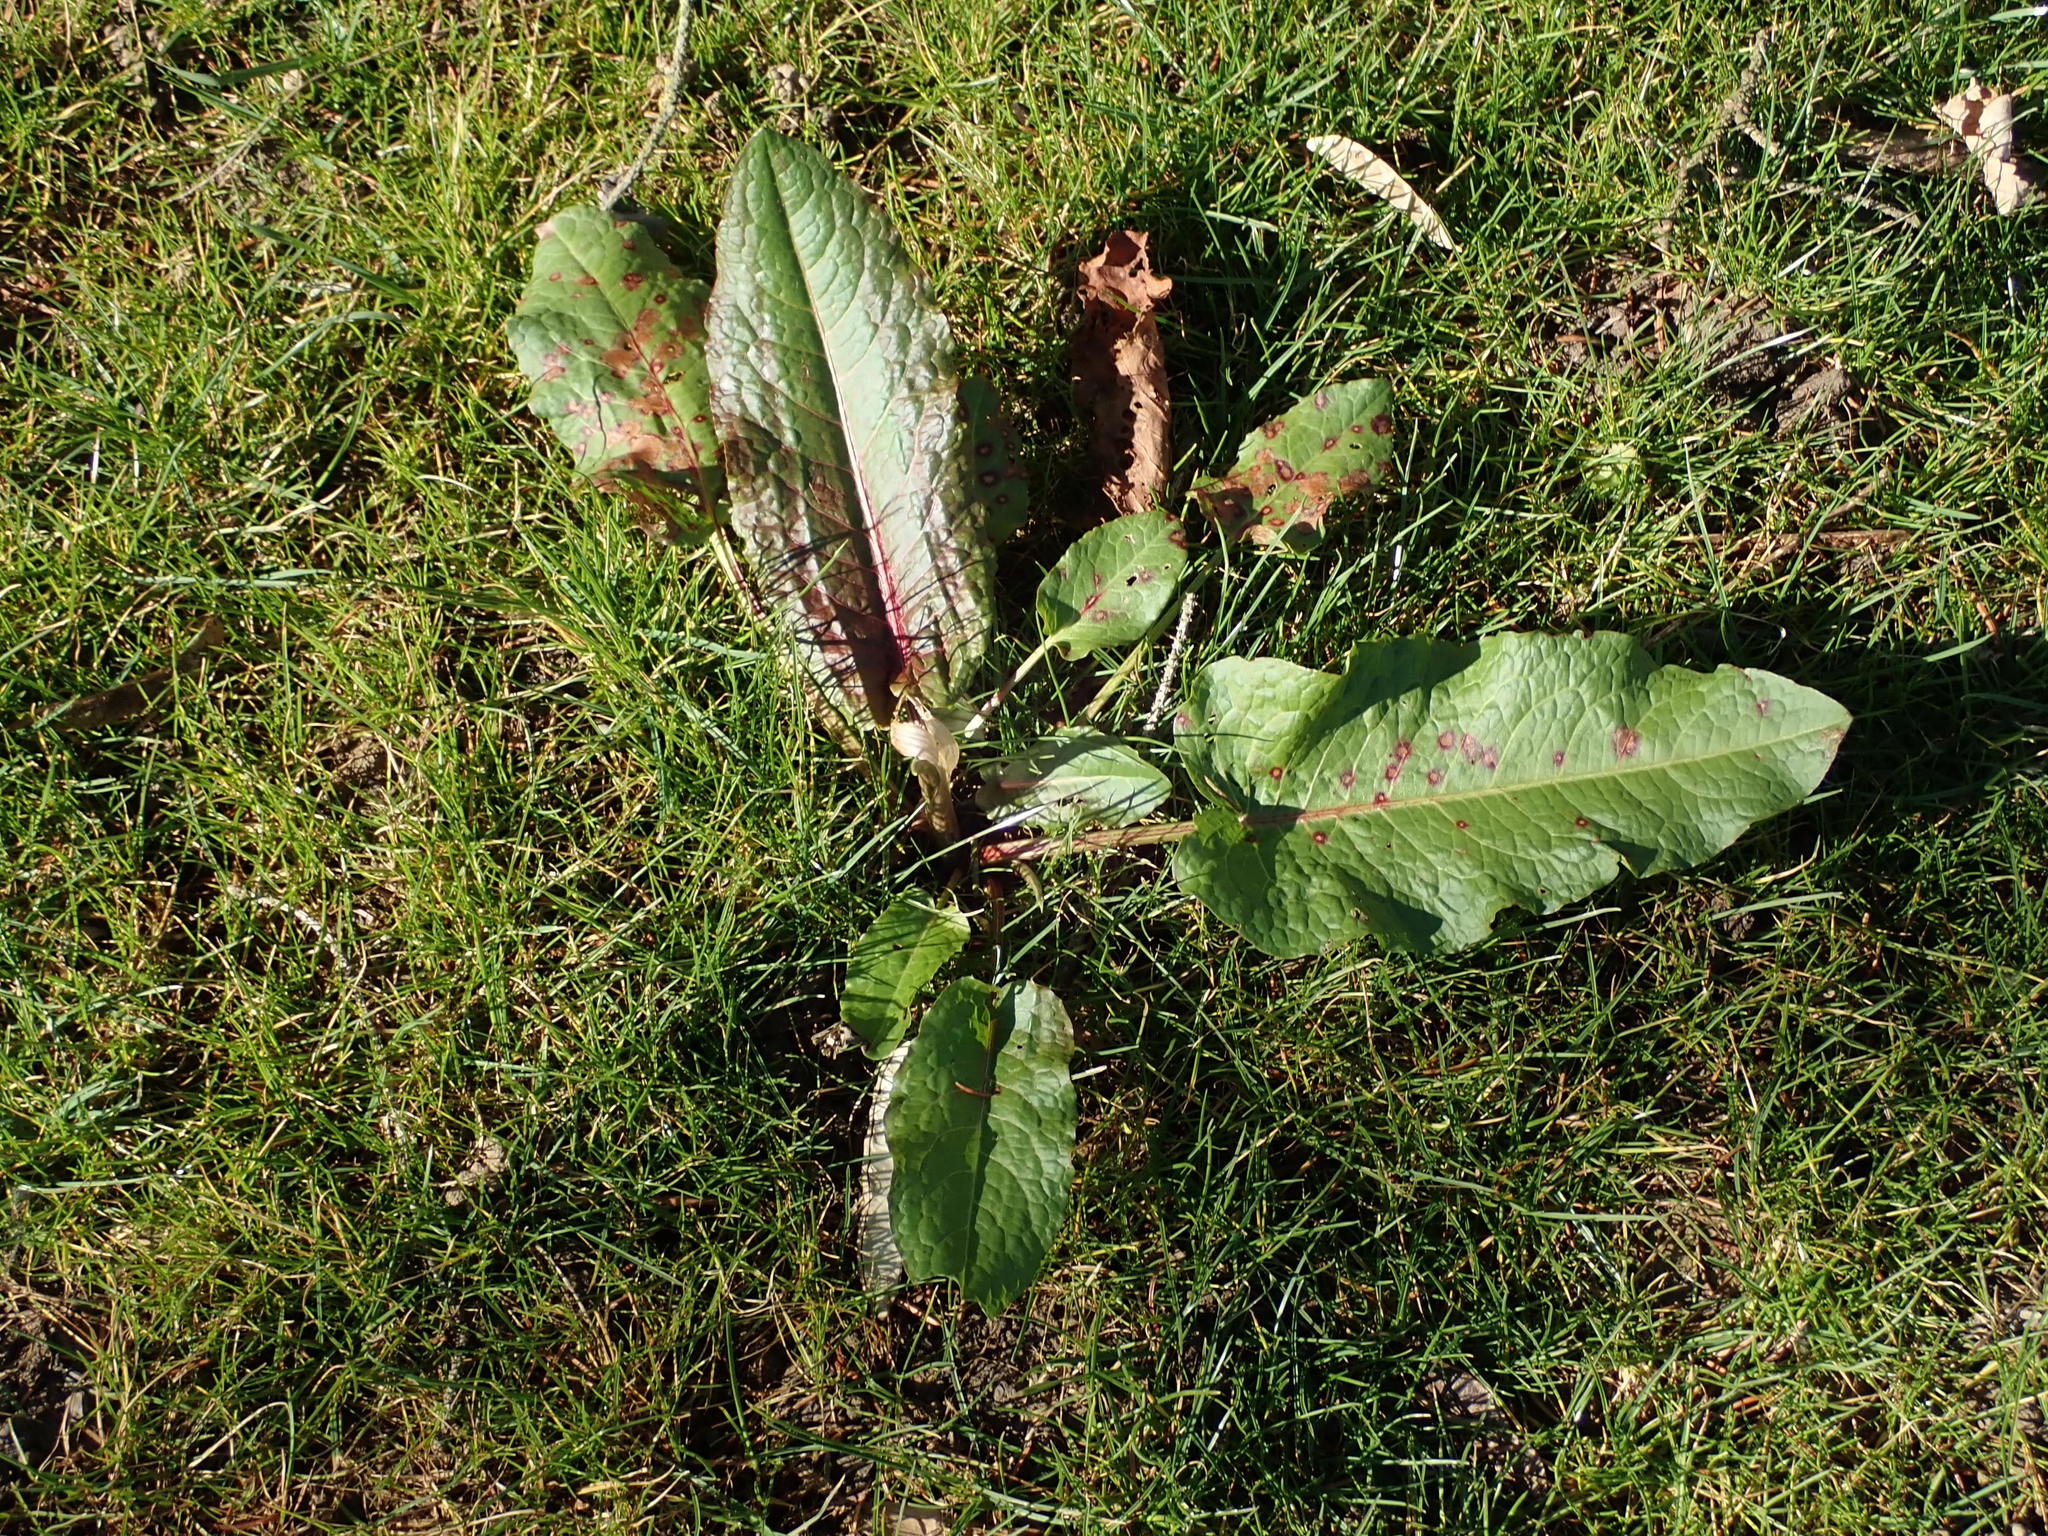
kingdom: Plantae
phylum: Tracheophyta
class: Magnoliopsida
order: Caryophyllales
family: Polygonaceae
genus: Rumex
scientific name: Rumex obtusifolius
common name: Bitter dock
